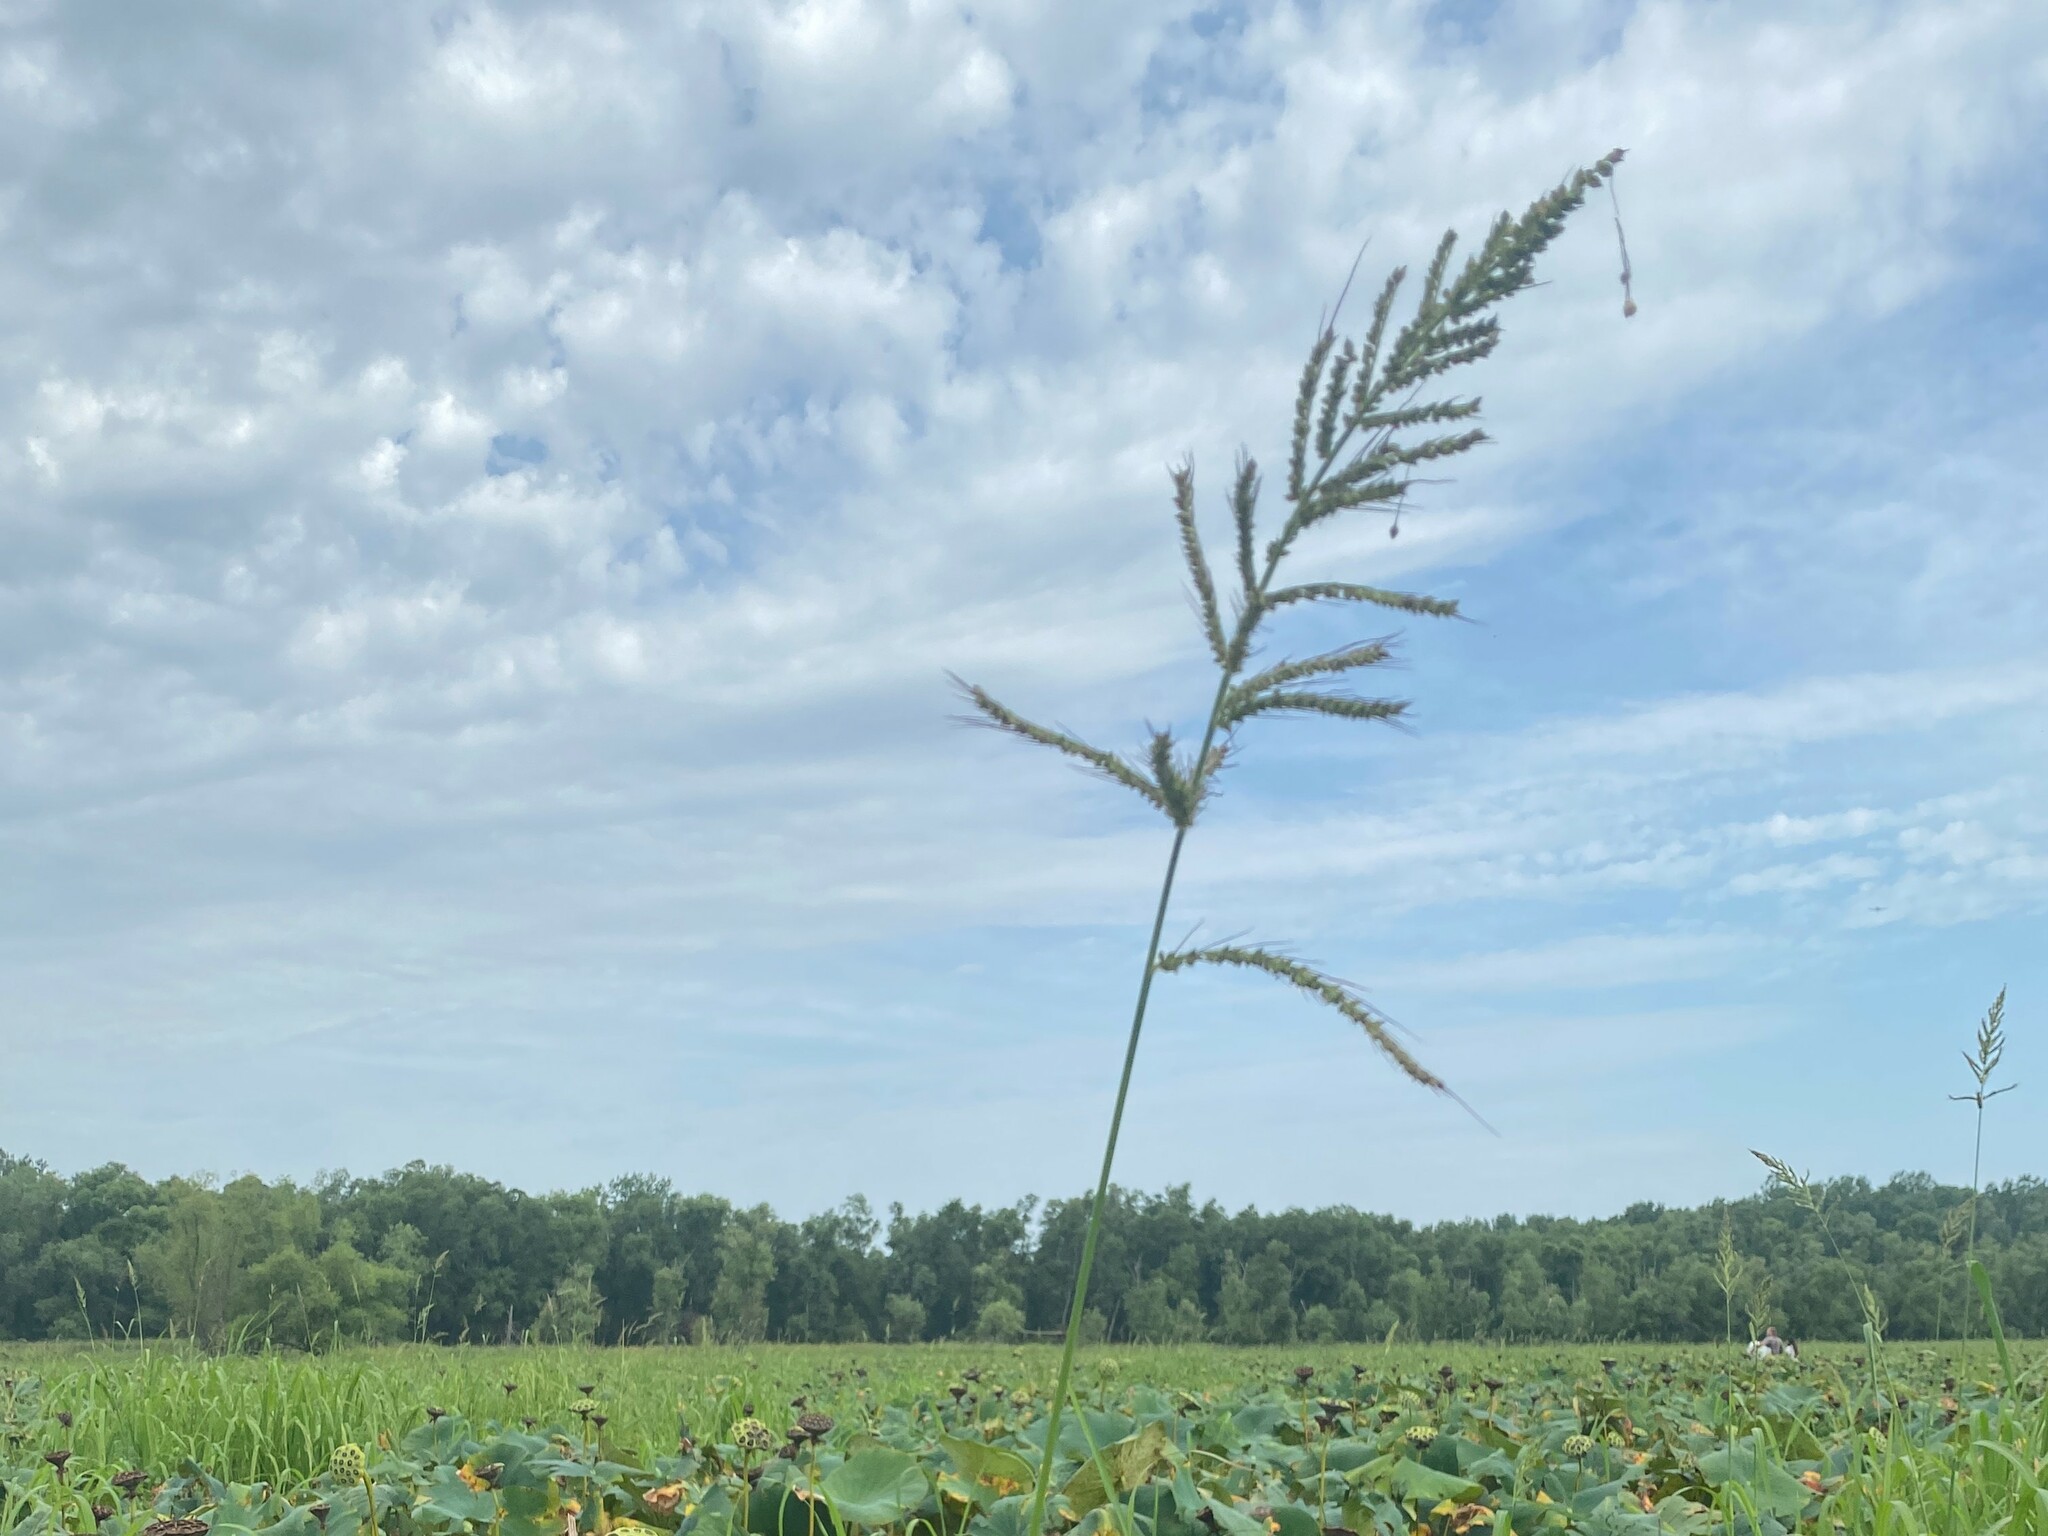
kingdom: Plantae
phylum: Tracheophyta
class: Liliopsida
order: Poales
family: Poaceae
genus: Echinochloa
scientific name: Echinochloa crus-galli
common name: Cockspur
